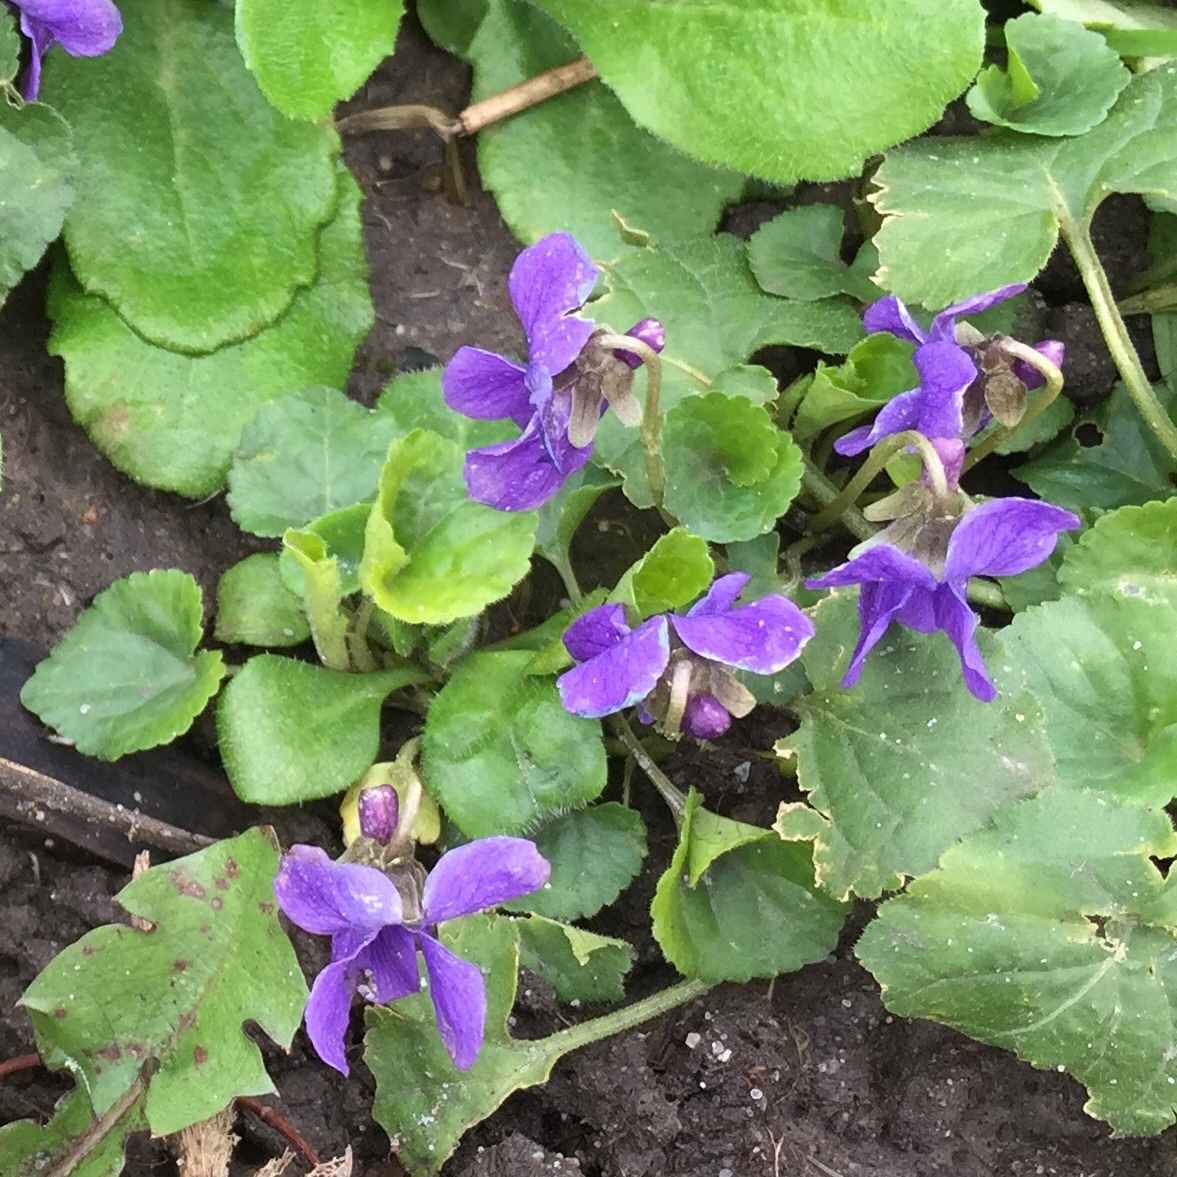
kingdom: Plantae
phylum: Tracheophyta
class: Magnoliopsida
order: Malpighiales
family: Violaceae
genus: Viola
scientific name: Viola odorata
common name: Sweet violet
